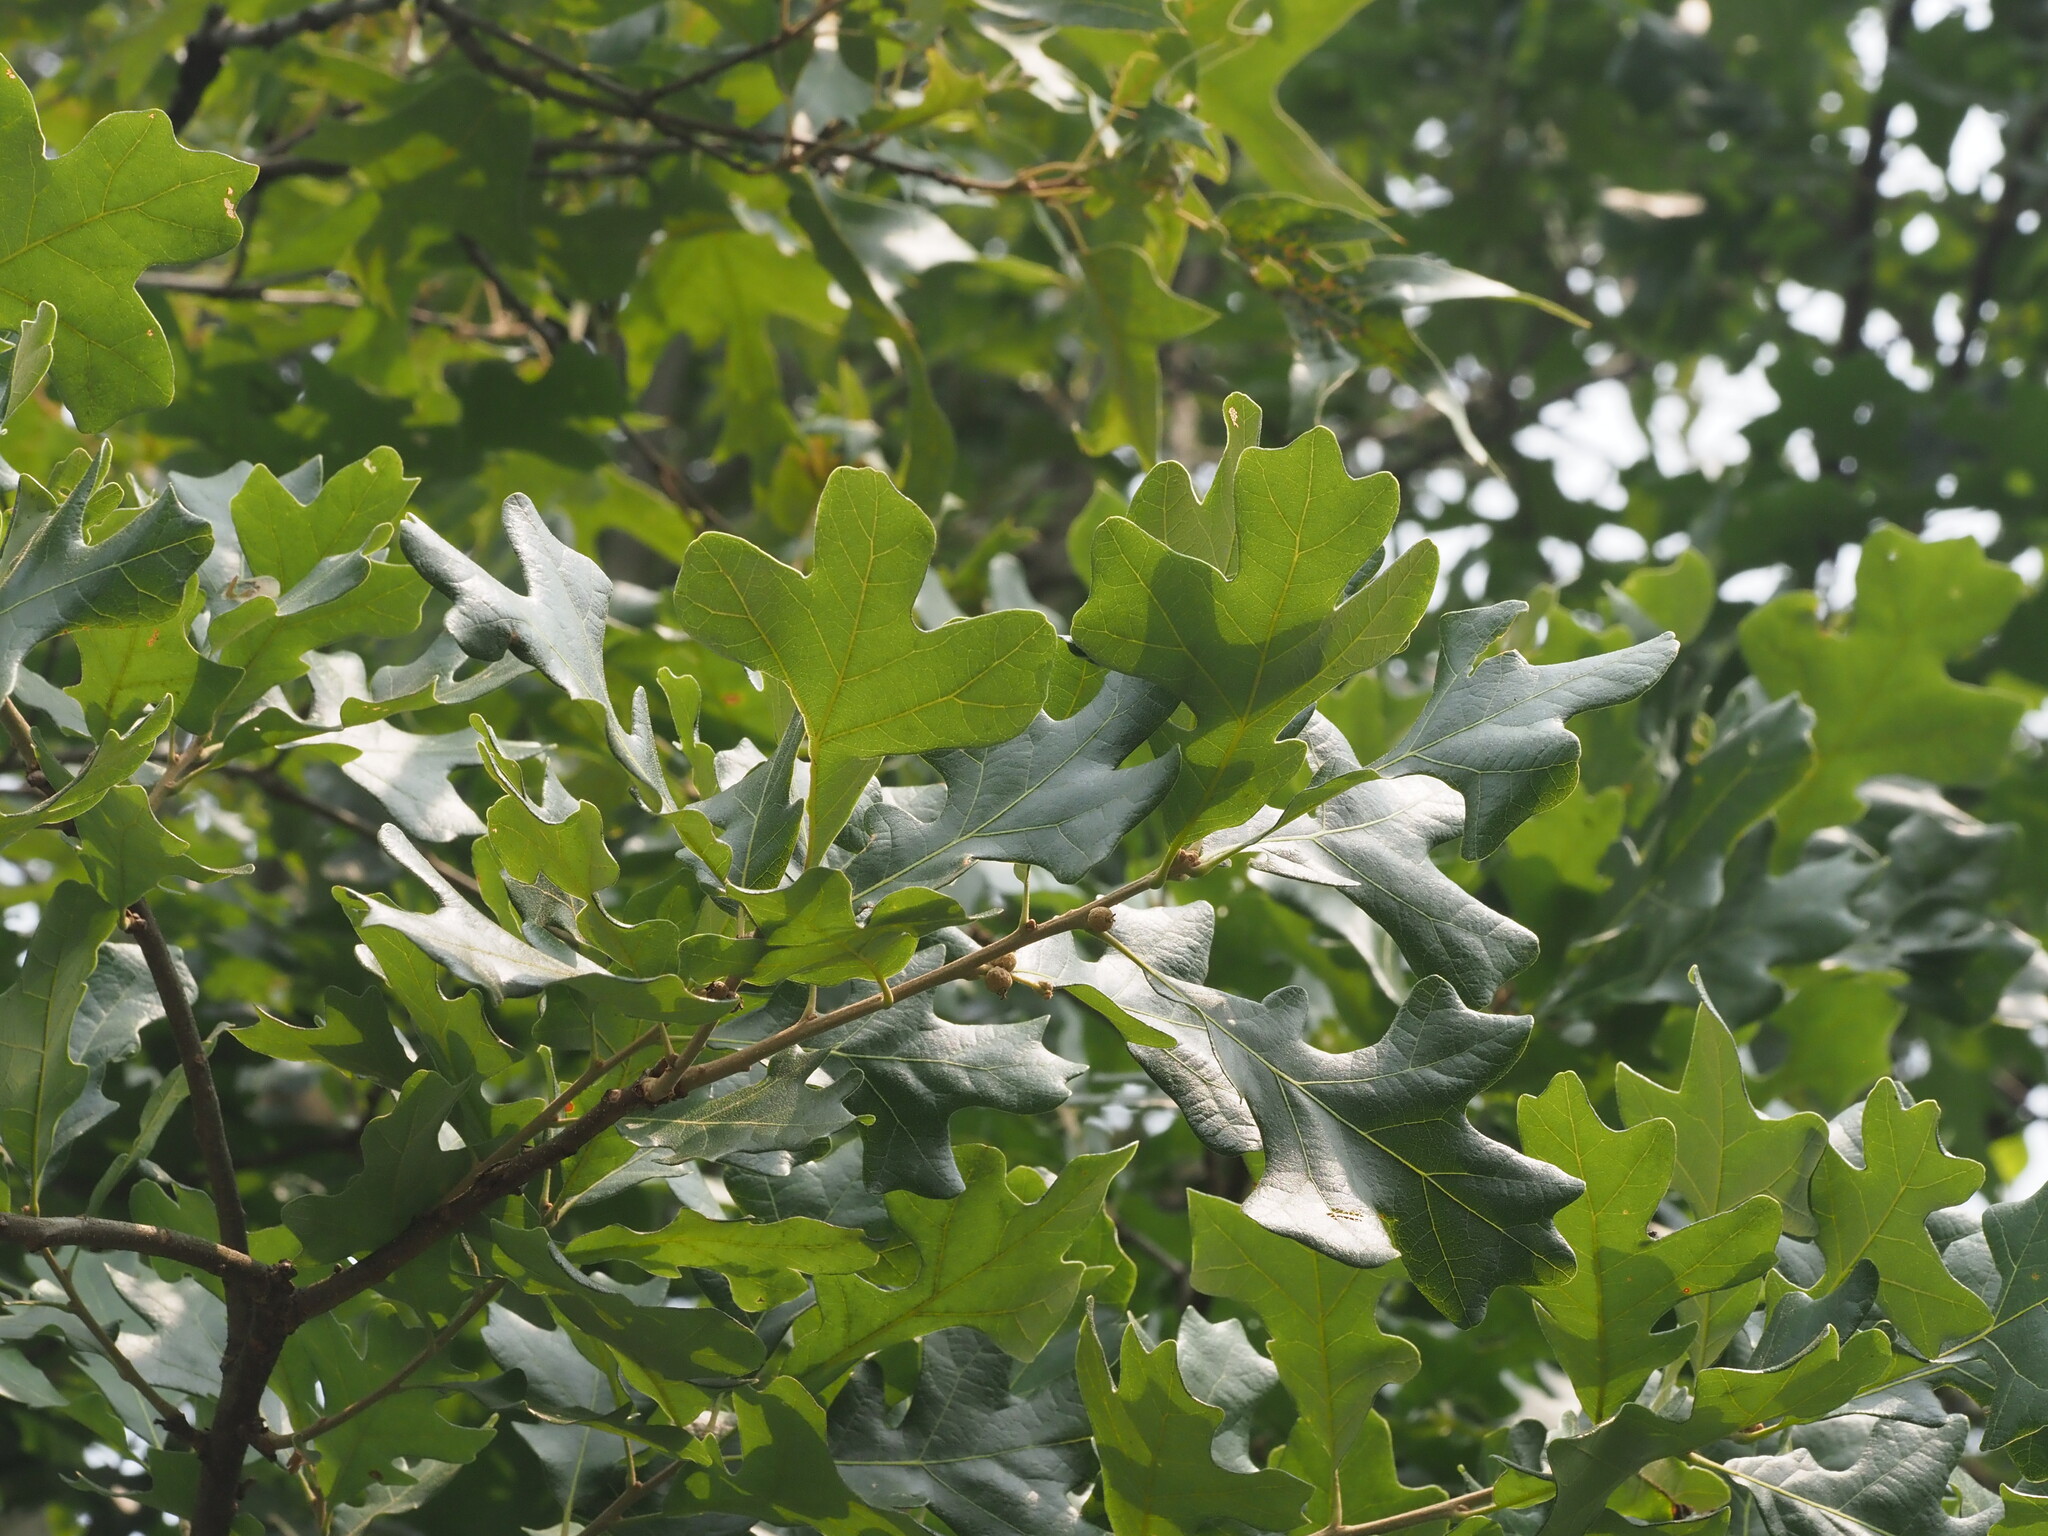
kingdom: Plantae
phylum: Tracheophyta
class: Magnoliopsida
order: Fagales
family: Fagaceae
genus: Quercus
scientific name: Quercus stellata
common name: Post oak
